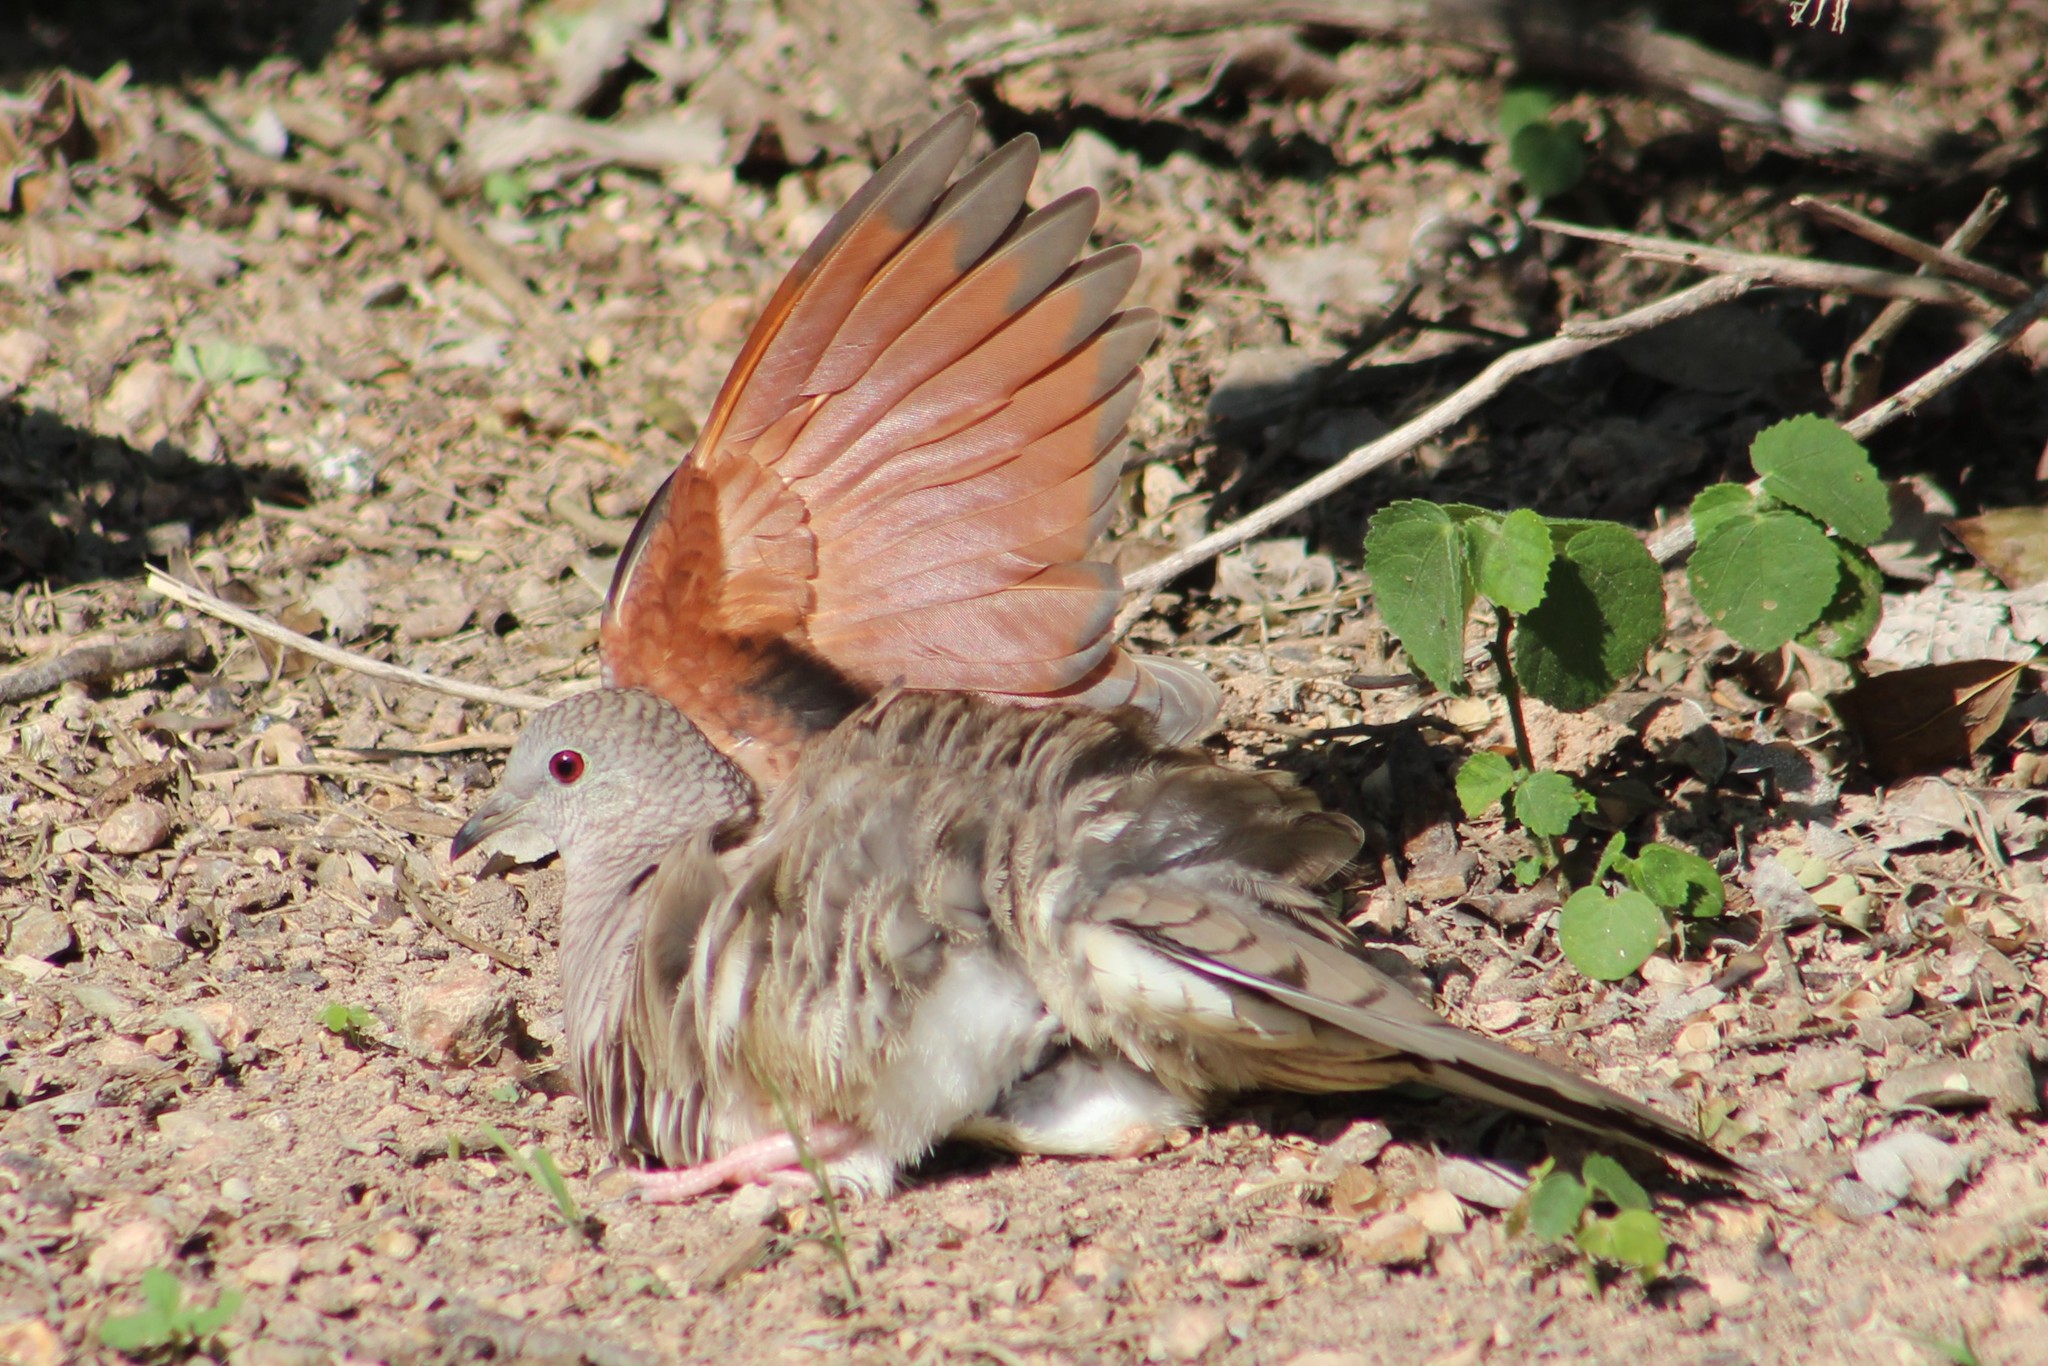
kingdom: Animalia
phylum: Chordata
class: Aves
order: Columbiformes
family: Columbidae
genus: Columbina
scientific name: Columbina inca
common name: Inca dove
